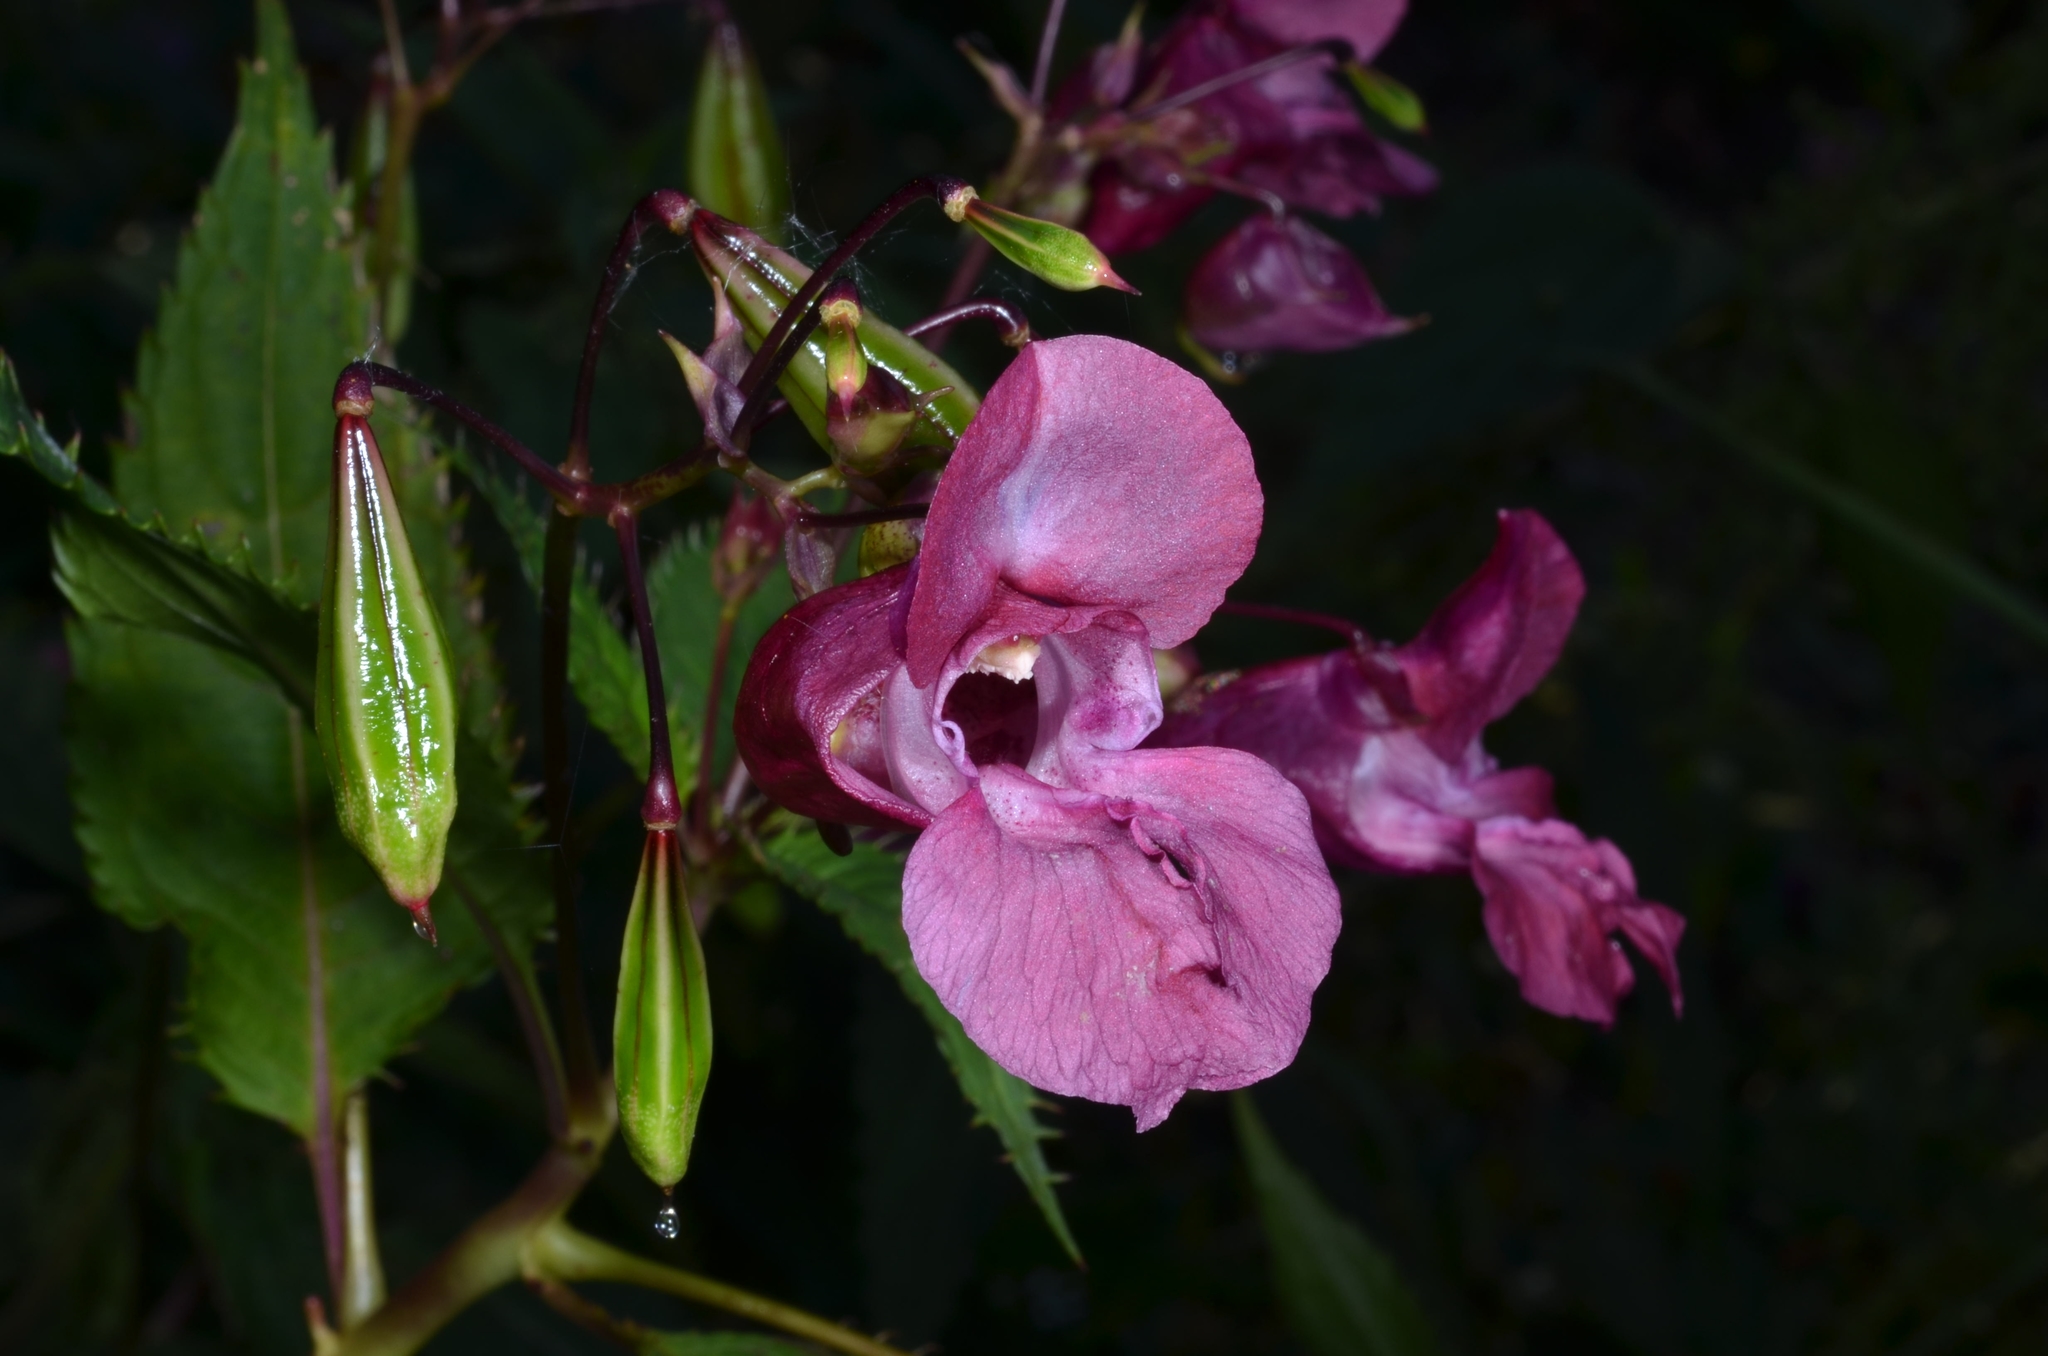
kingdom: Plantae
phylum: Tracheophyta
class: Magnoliopsida
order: Ericales
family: Balsaminaceae
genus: Impatiens
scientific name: Impatiens glandulifera
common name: Himalayan balsam
